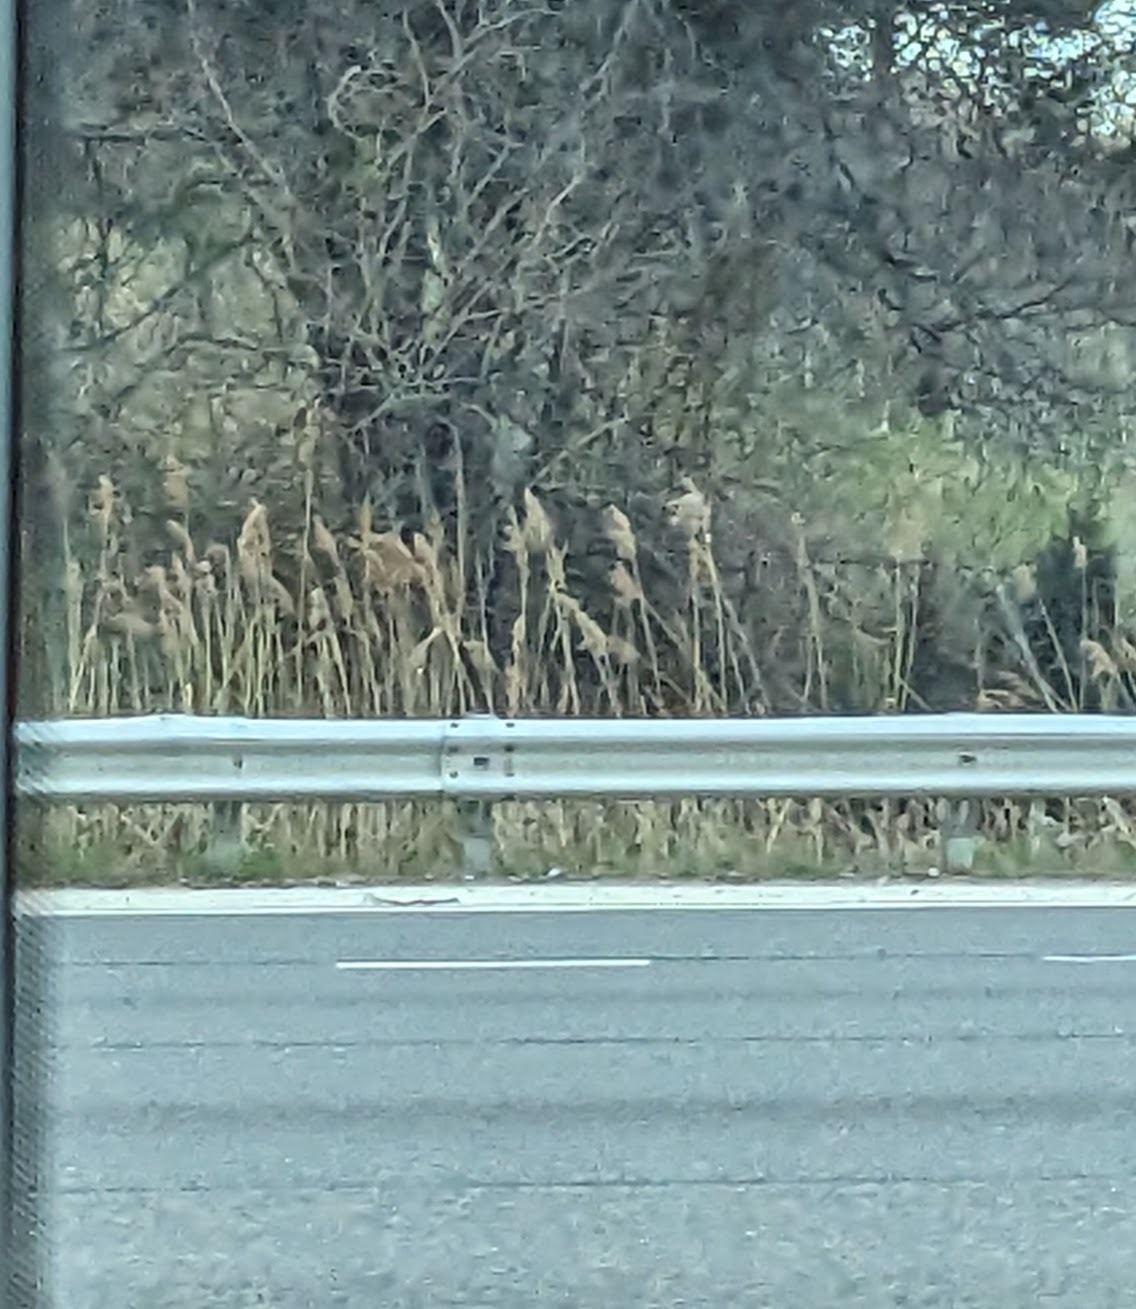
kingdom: Plantae
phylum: Tracheophyta
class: Liliopsida
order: Poales
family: Poaceae
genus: Phragmites
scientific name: Phragmites australis
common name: Common reed
